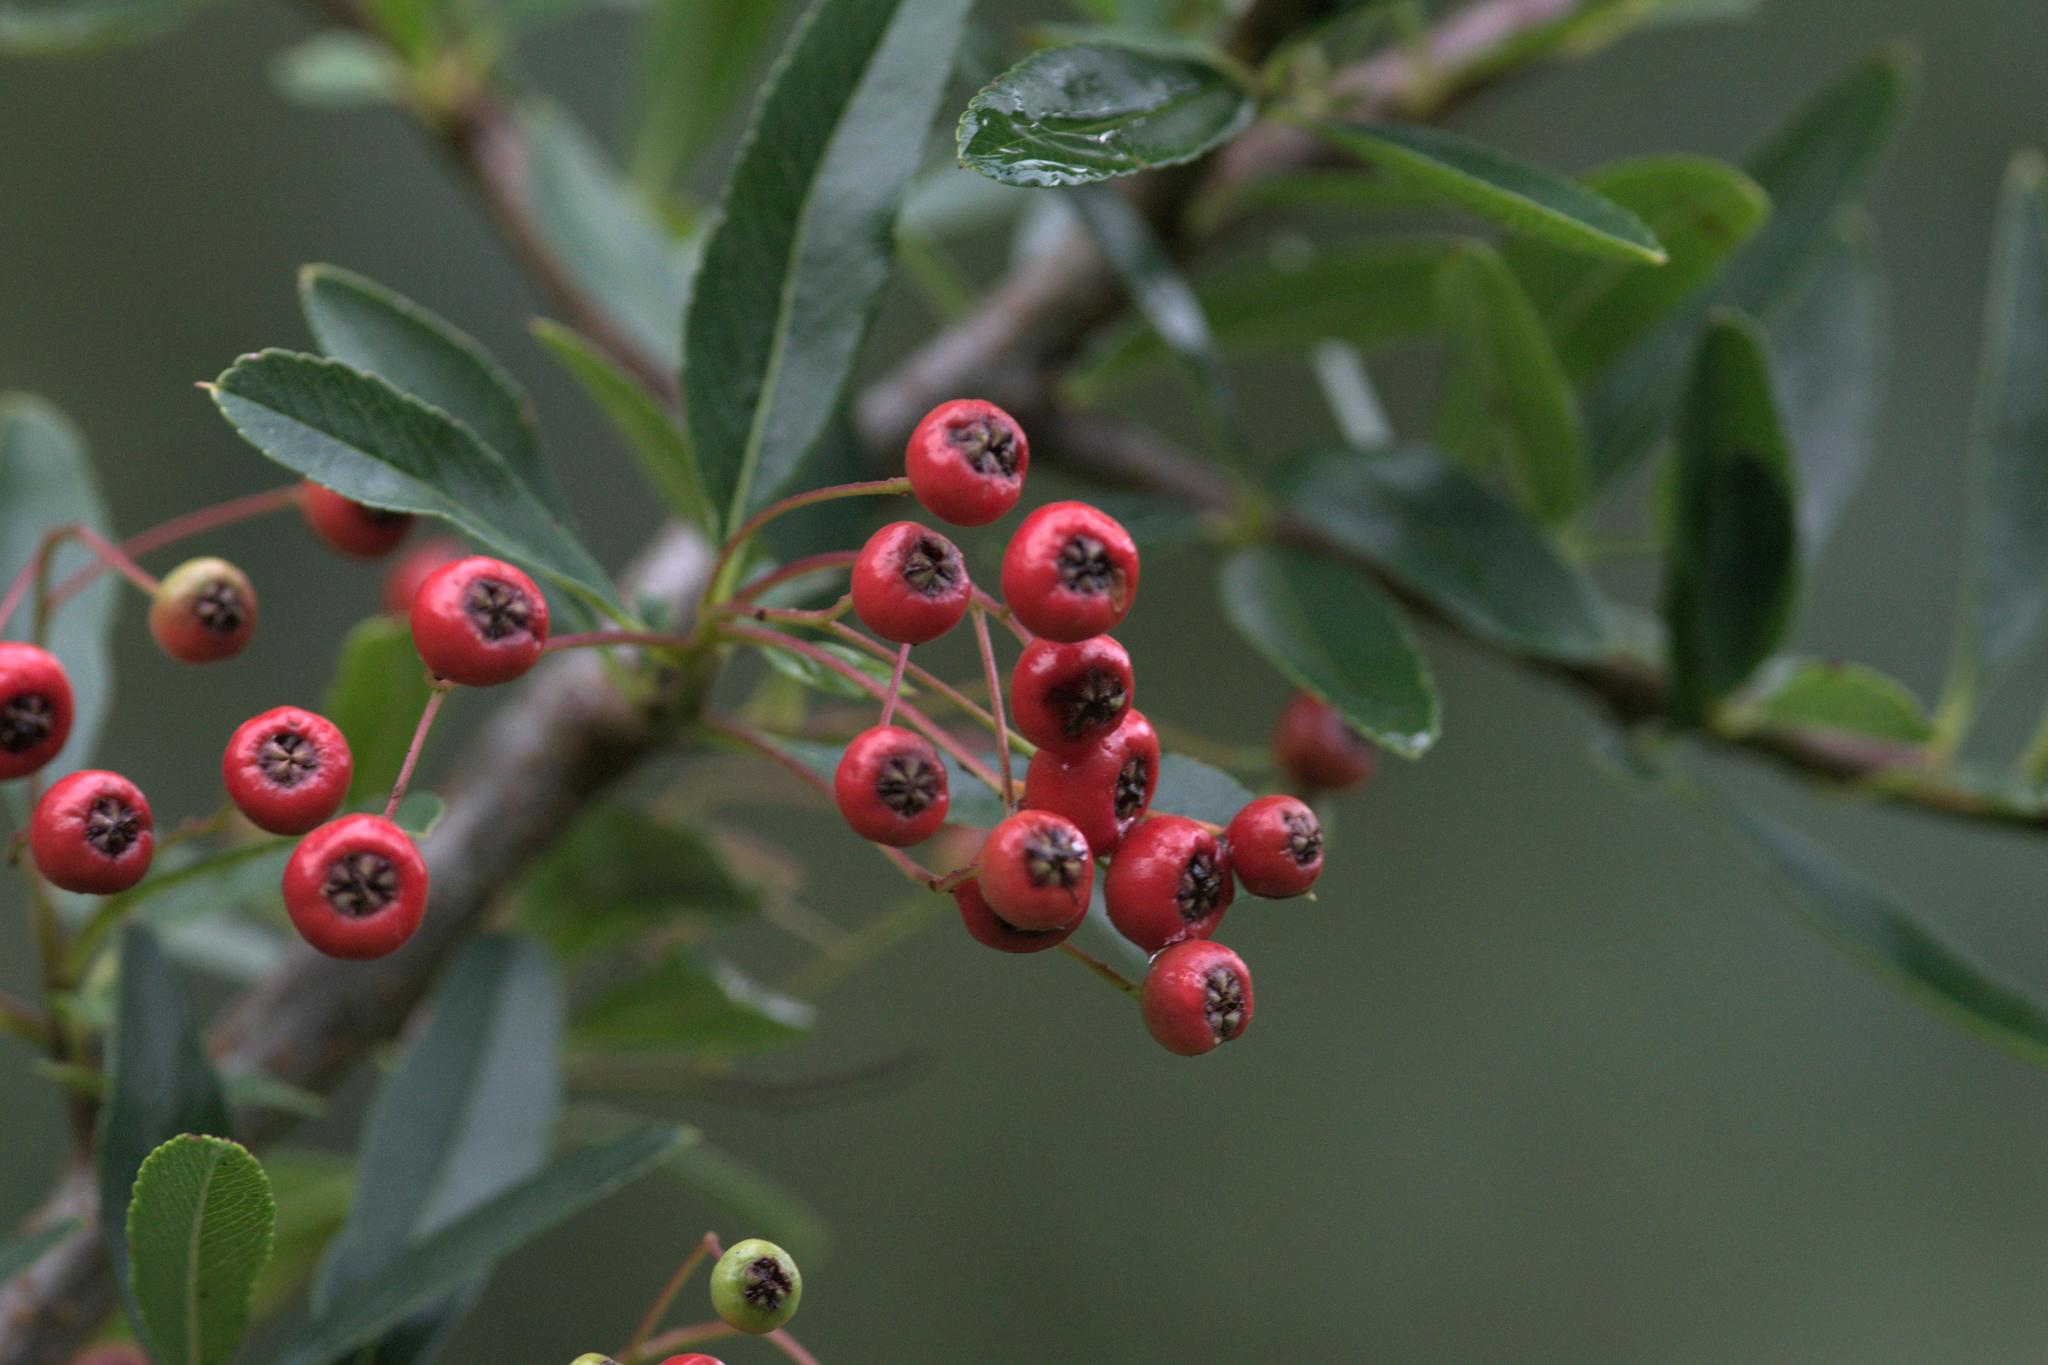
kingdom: Plantae
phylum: Tracheophyta
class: Magnoliopsida
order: Rosales
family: Rosaceae
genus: Pyracantha
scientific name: Pyracantha crenulata
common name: Nepalese firethorn
